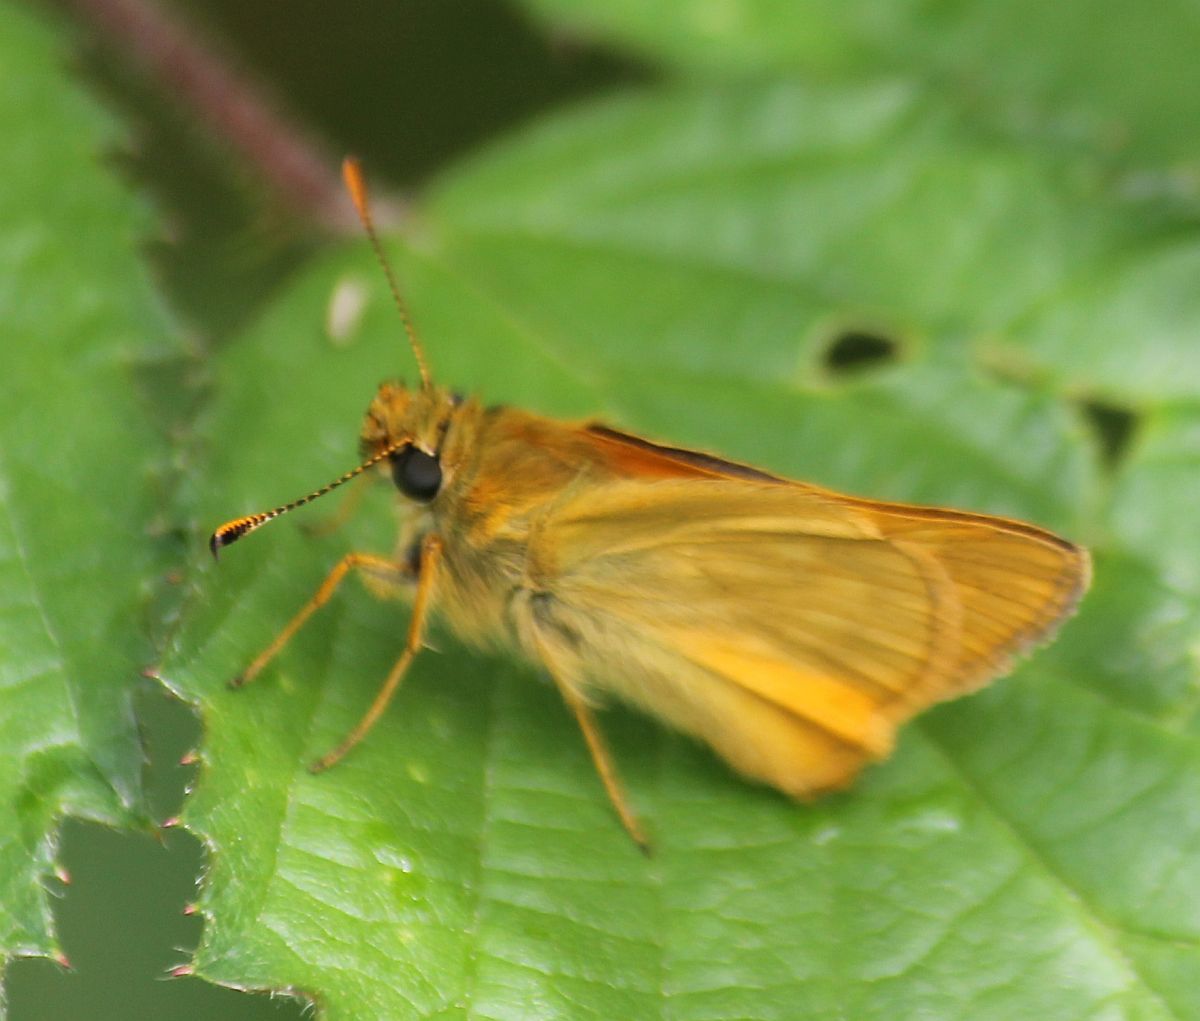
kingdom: Animalia
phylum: Arthropoda
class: Insecta
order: Lepidoptera
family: Hesperiidae
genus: Ochlodes
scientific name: Ochlodes venata
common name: Large skipper
